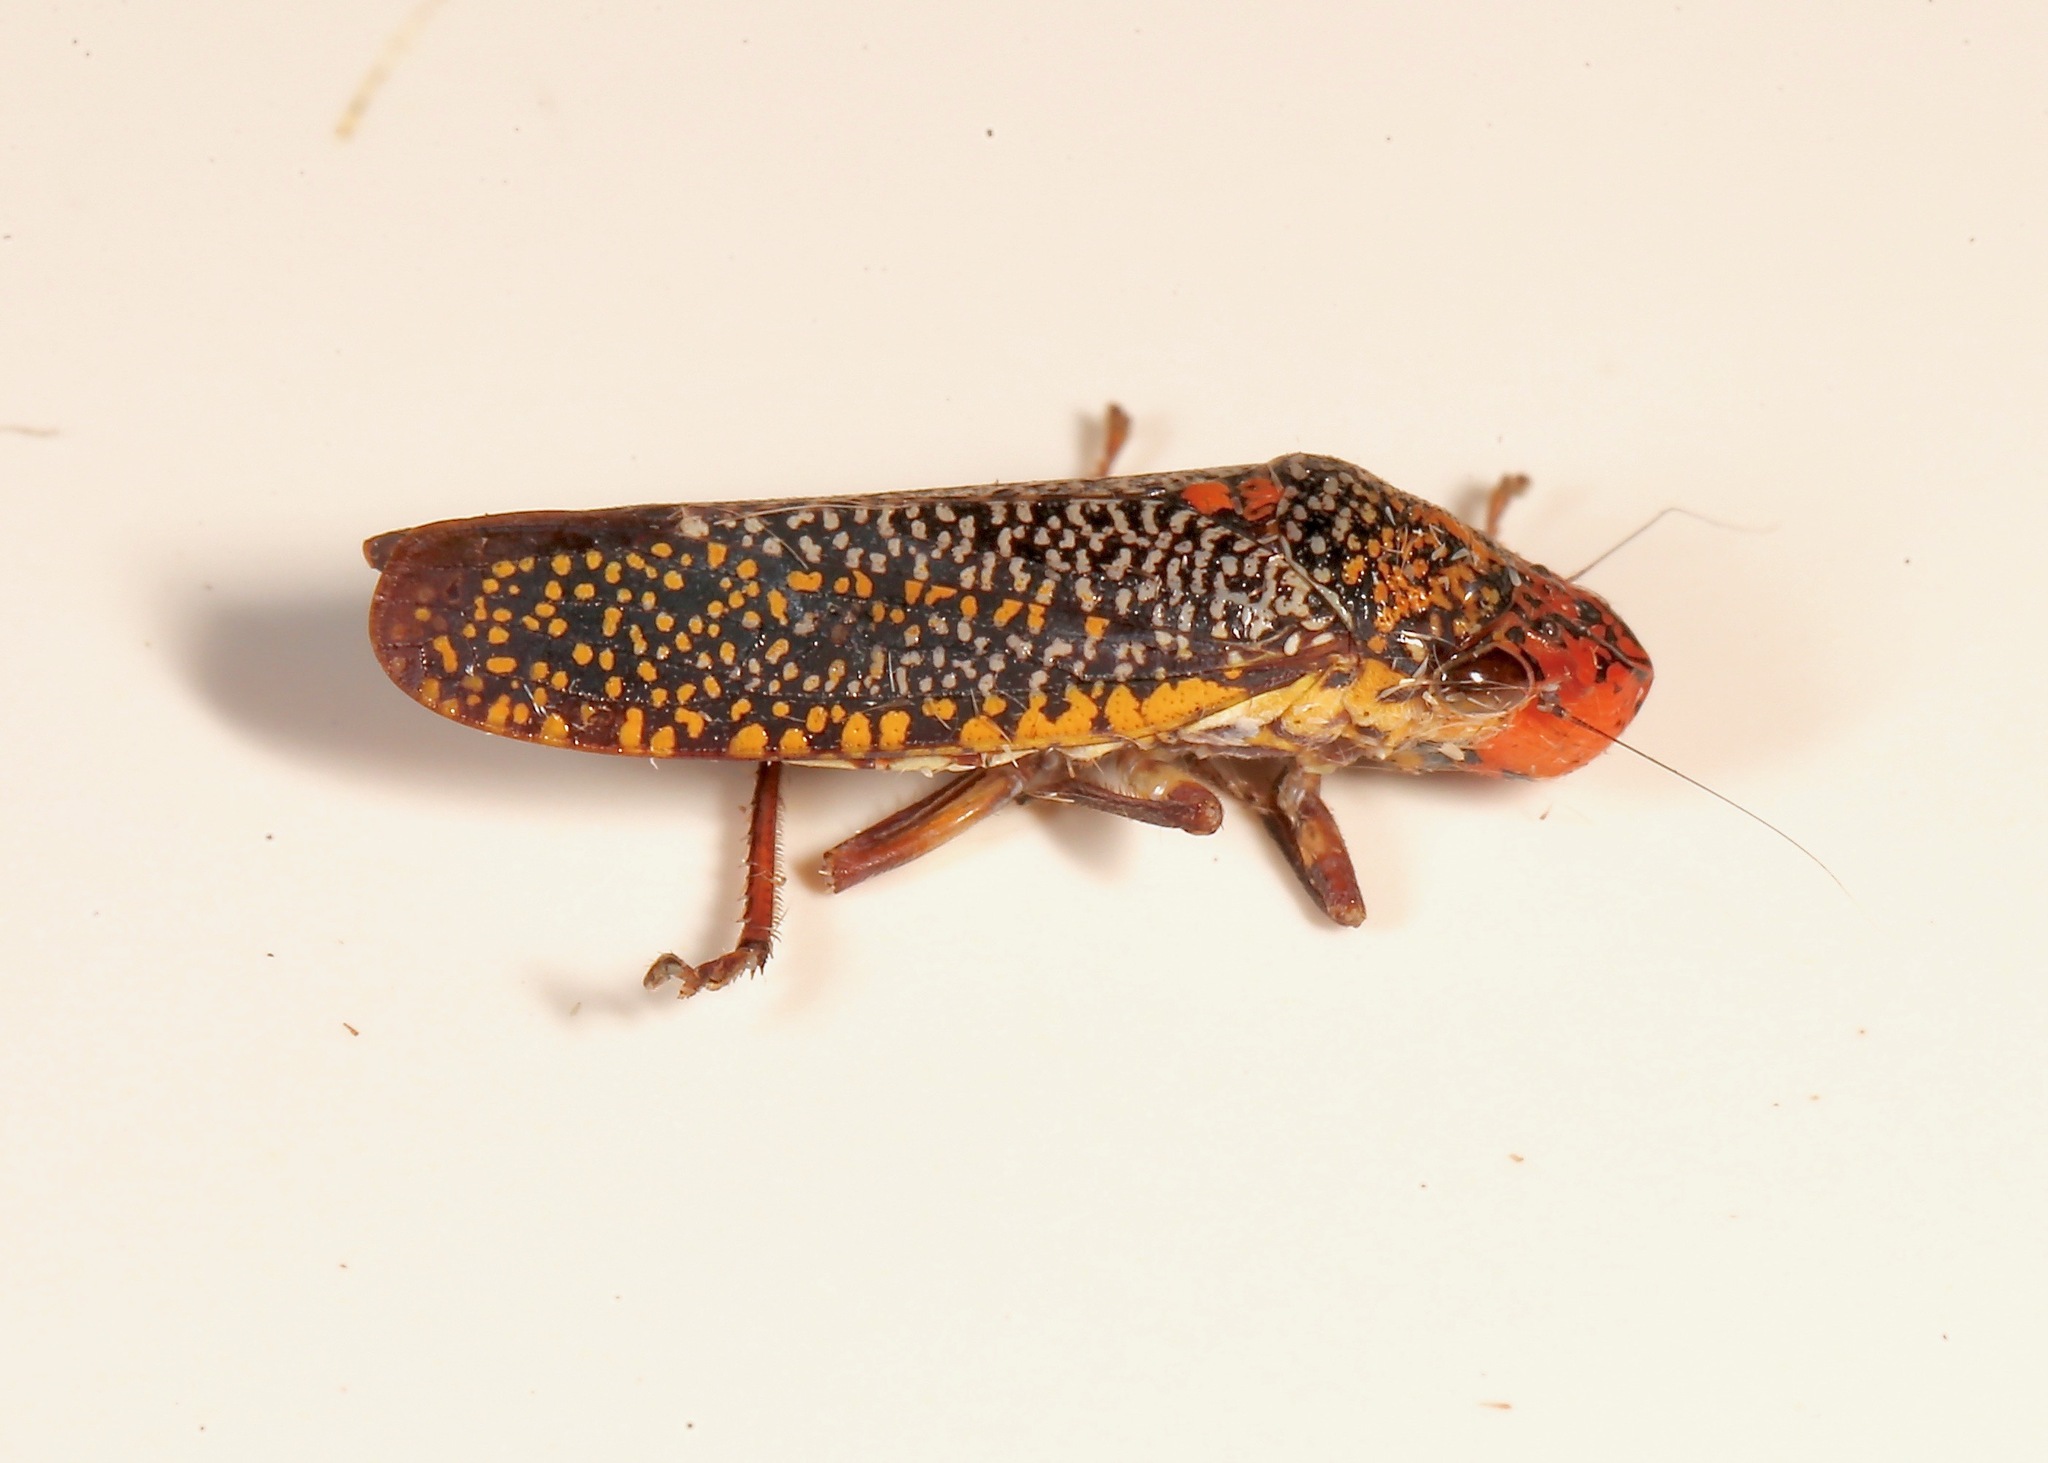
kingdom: Animalia
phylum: Arthropoda
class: Insecta
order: Hemiptera
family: Cicadellidae
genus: Paraulacizes
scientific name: Paraulacizes irrorata
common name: Speckled sharpshooter
